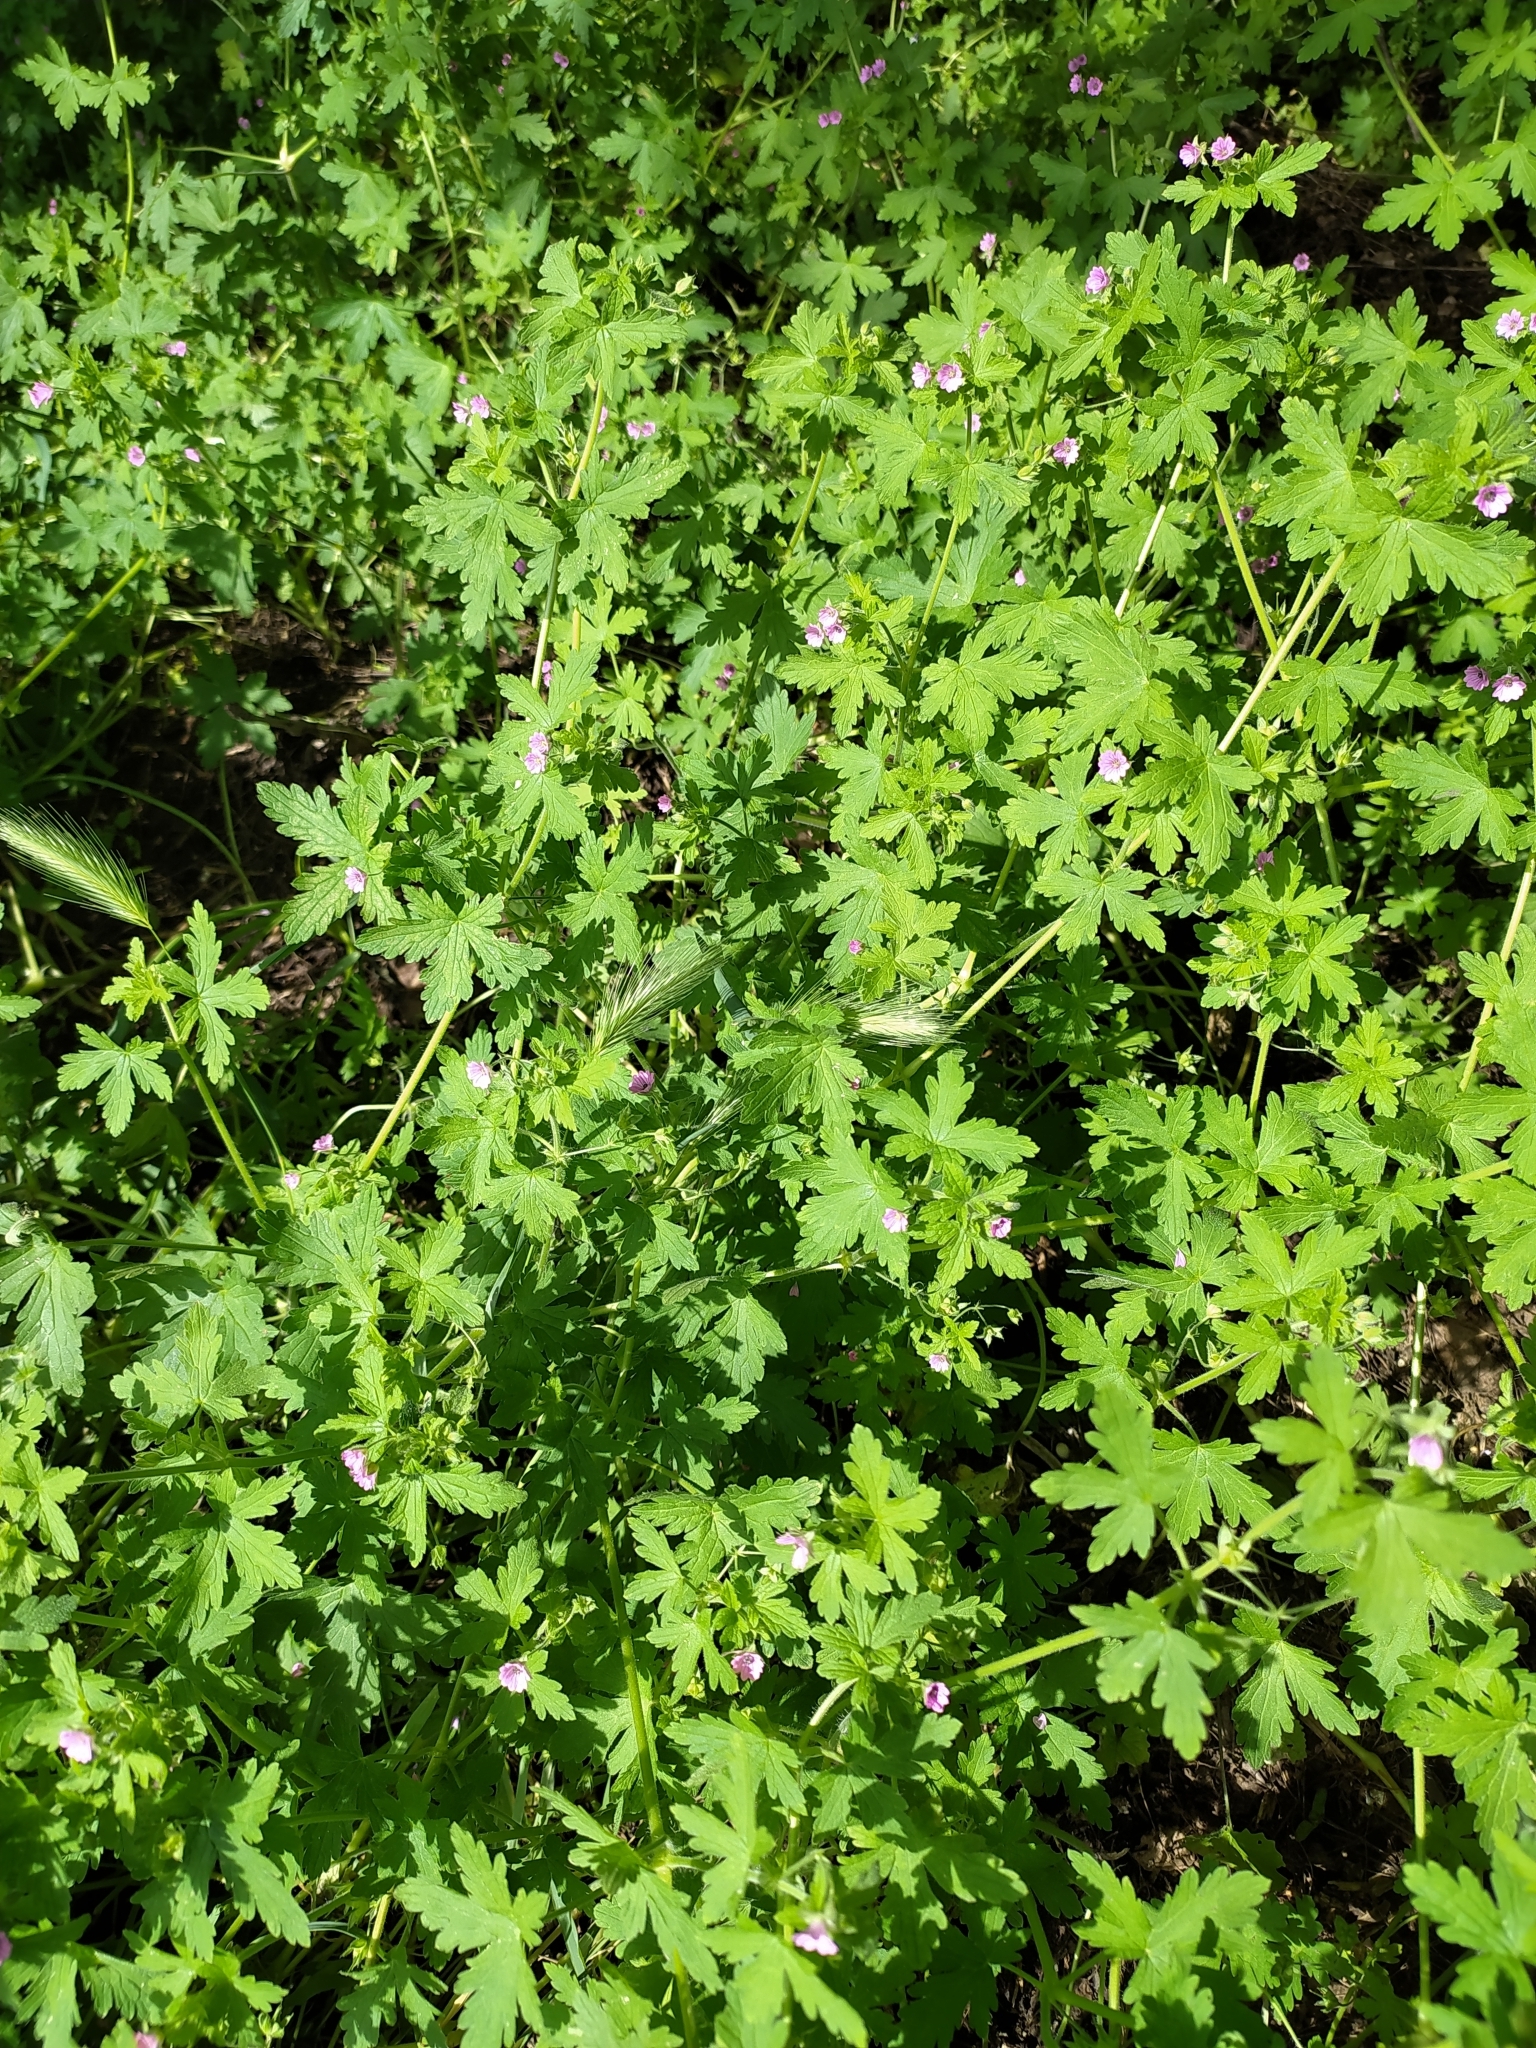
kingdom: Plantae
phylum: Tracheophyta
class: Magnoliopsida
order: Geraniales
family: Geraniaceae
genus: Geranium
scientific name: Geranium divaricatum
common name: Spreading crane's-bill
